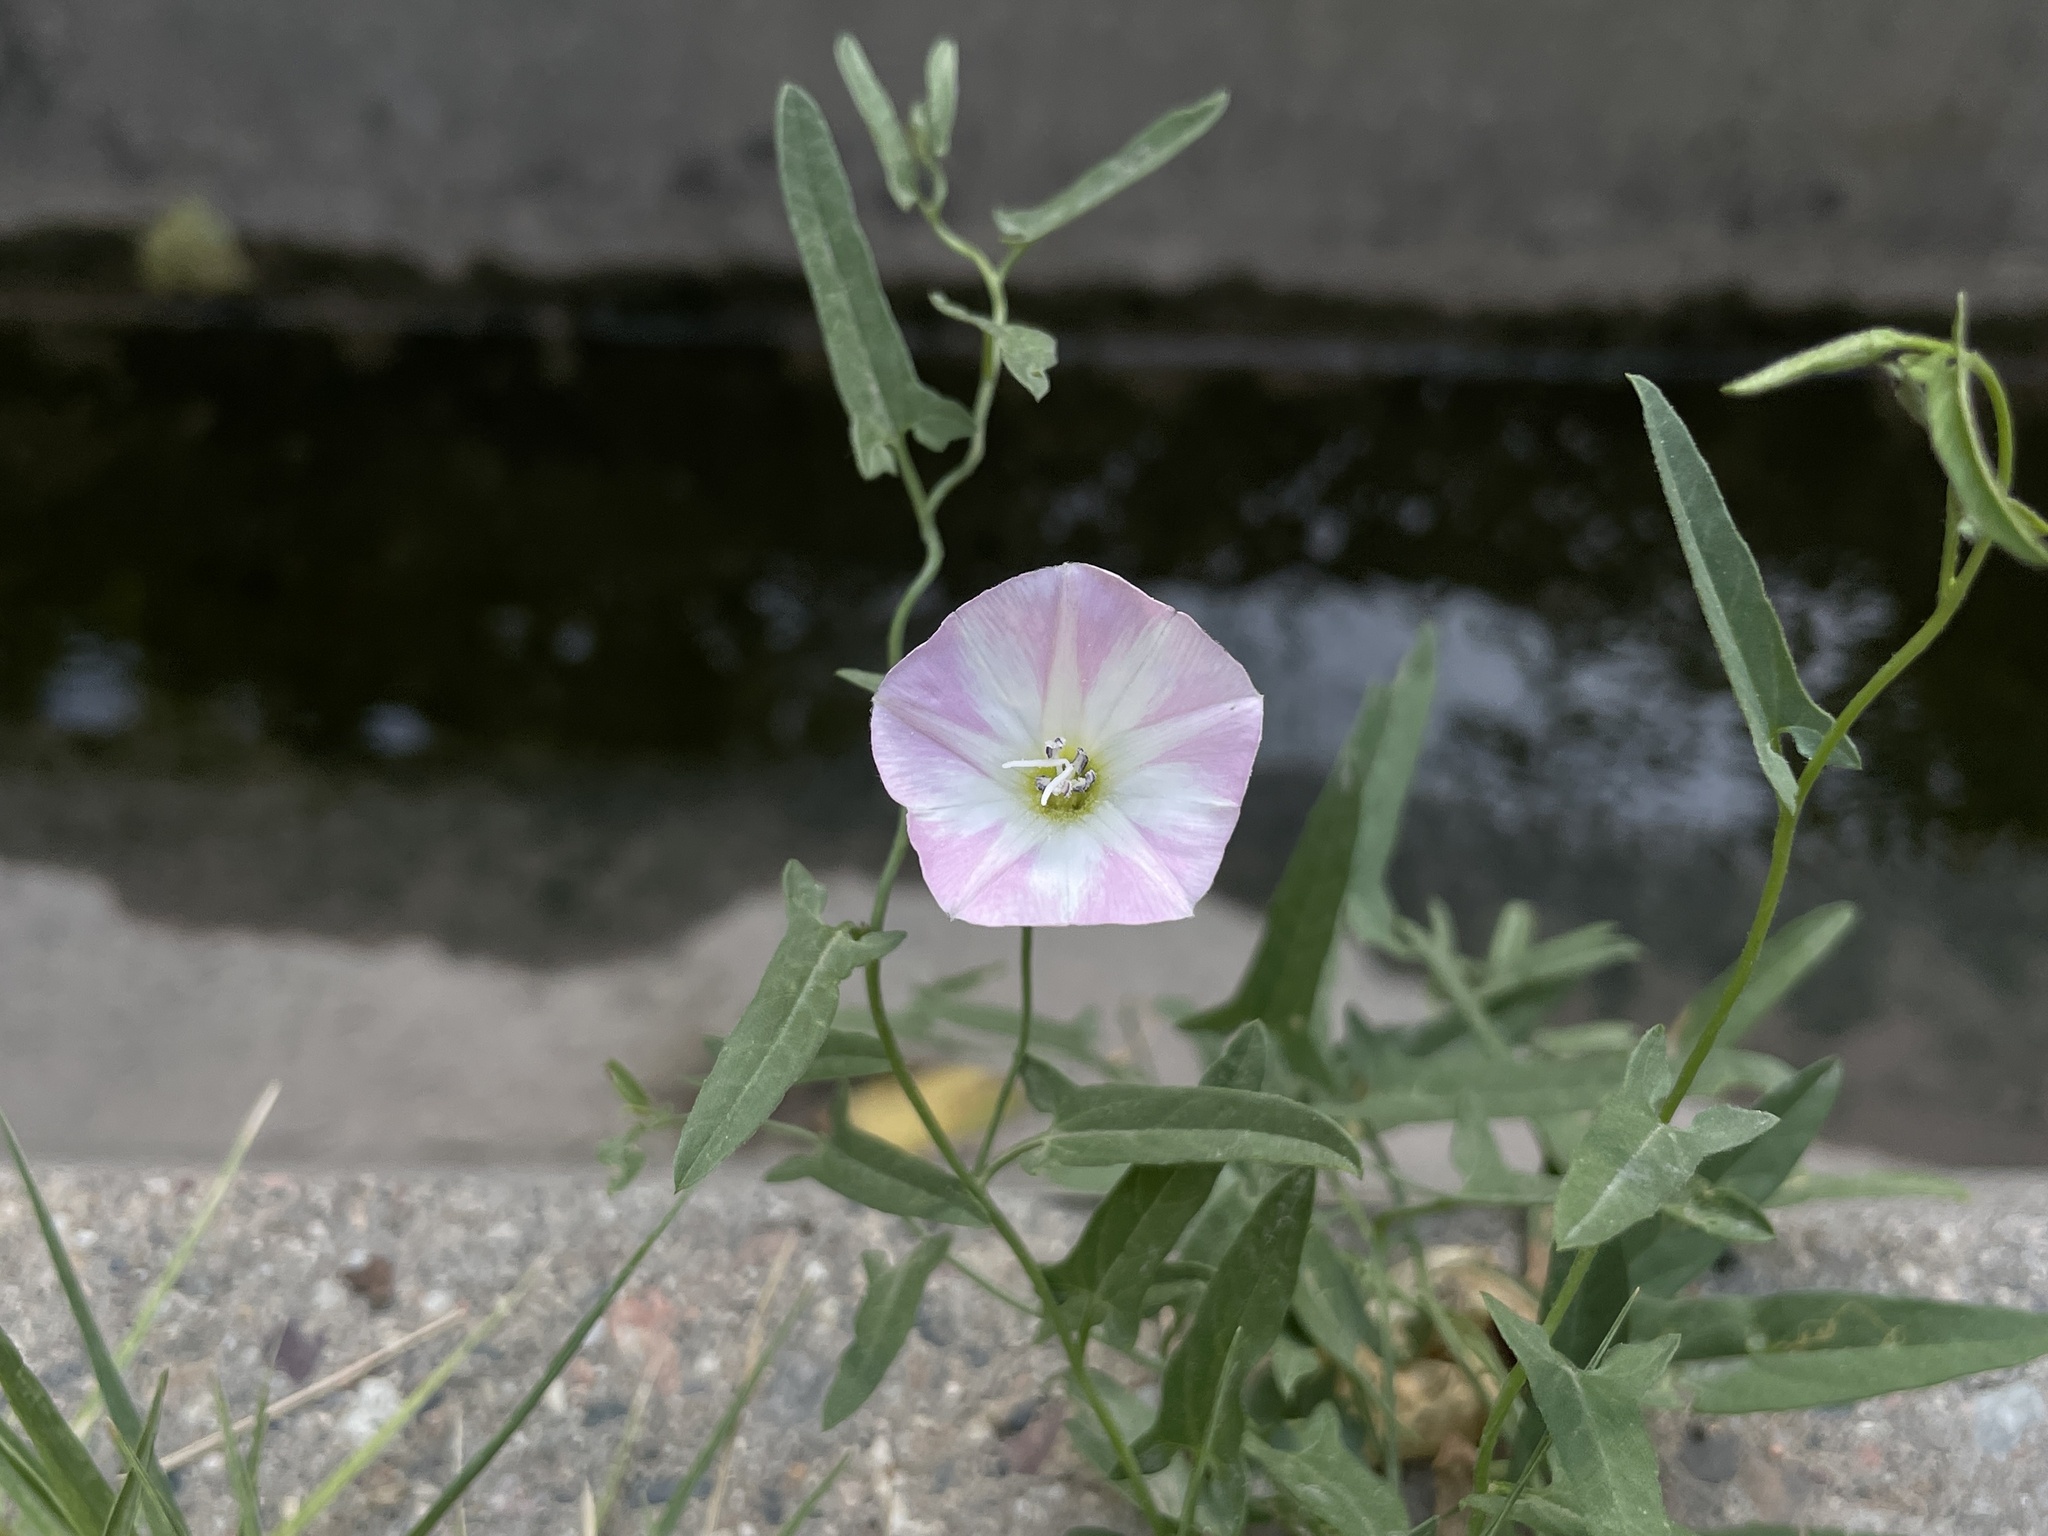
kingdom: Plantae
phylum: Tracheophyta
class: Magnoliopsida
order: Solanales
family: Convolvulaceae
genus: Convolvulus
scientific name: Convolvulus arvensis
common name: Field bindweed
